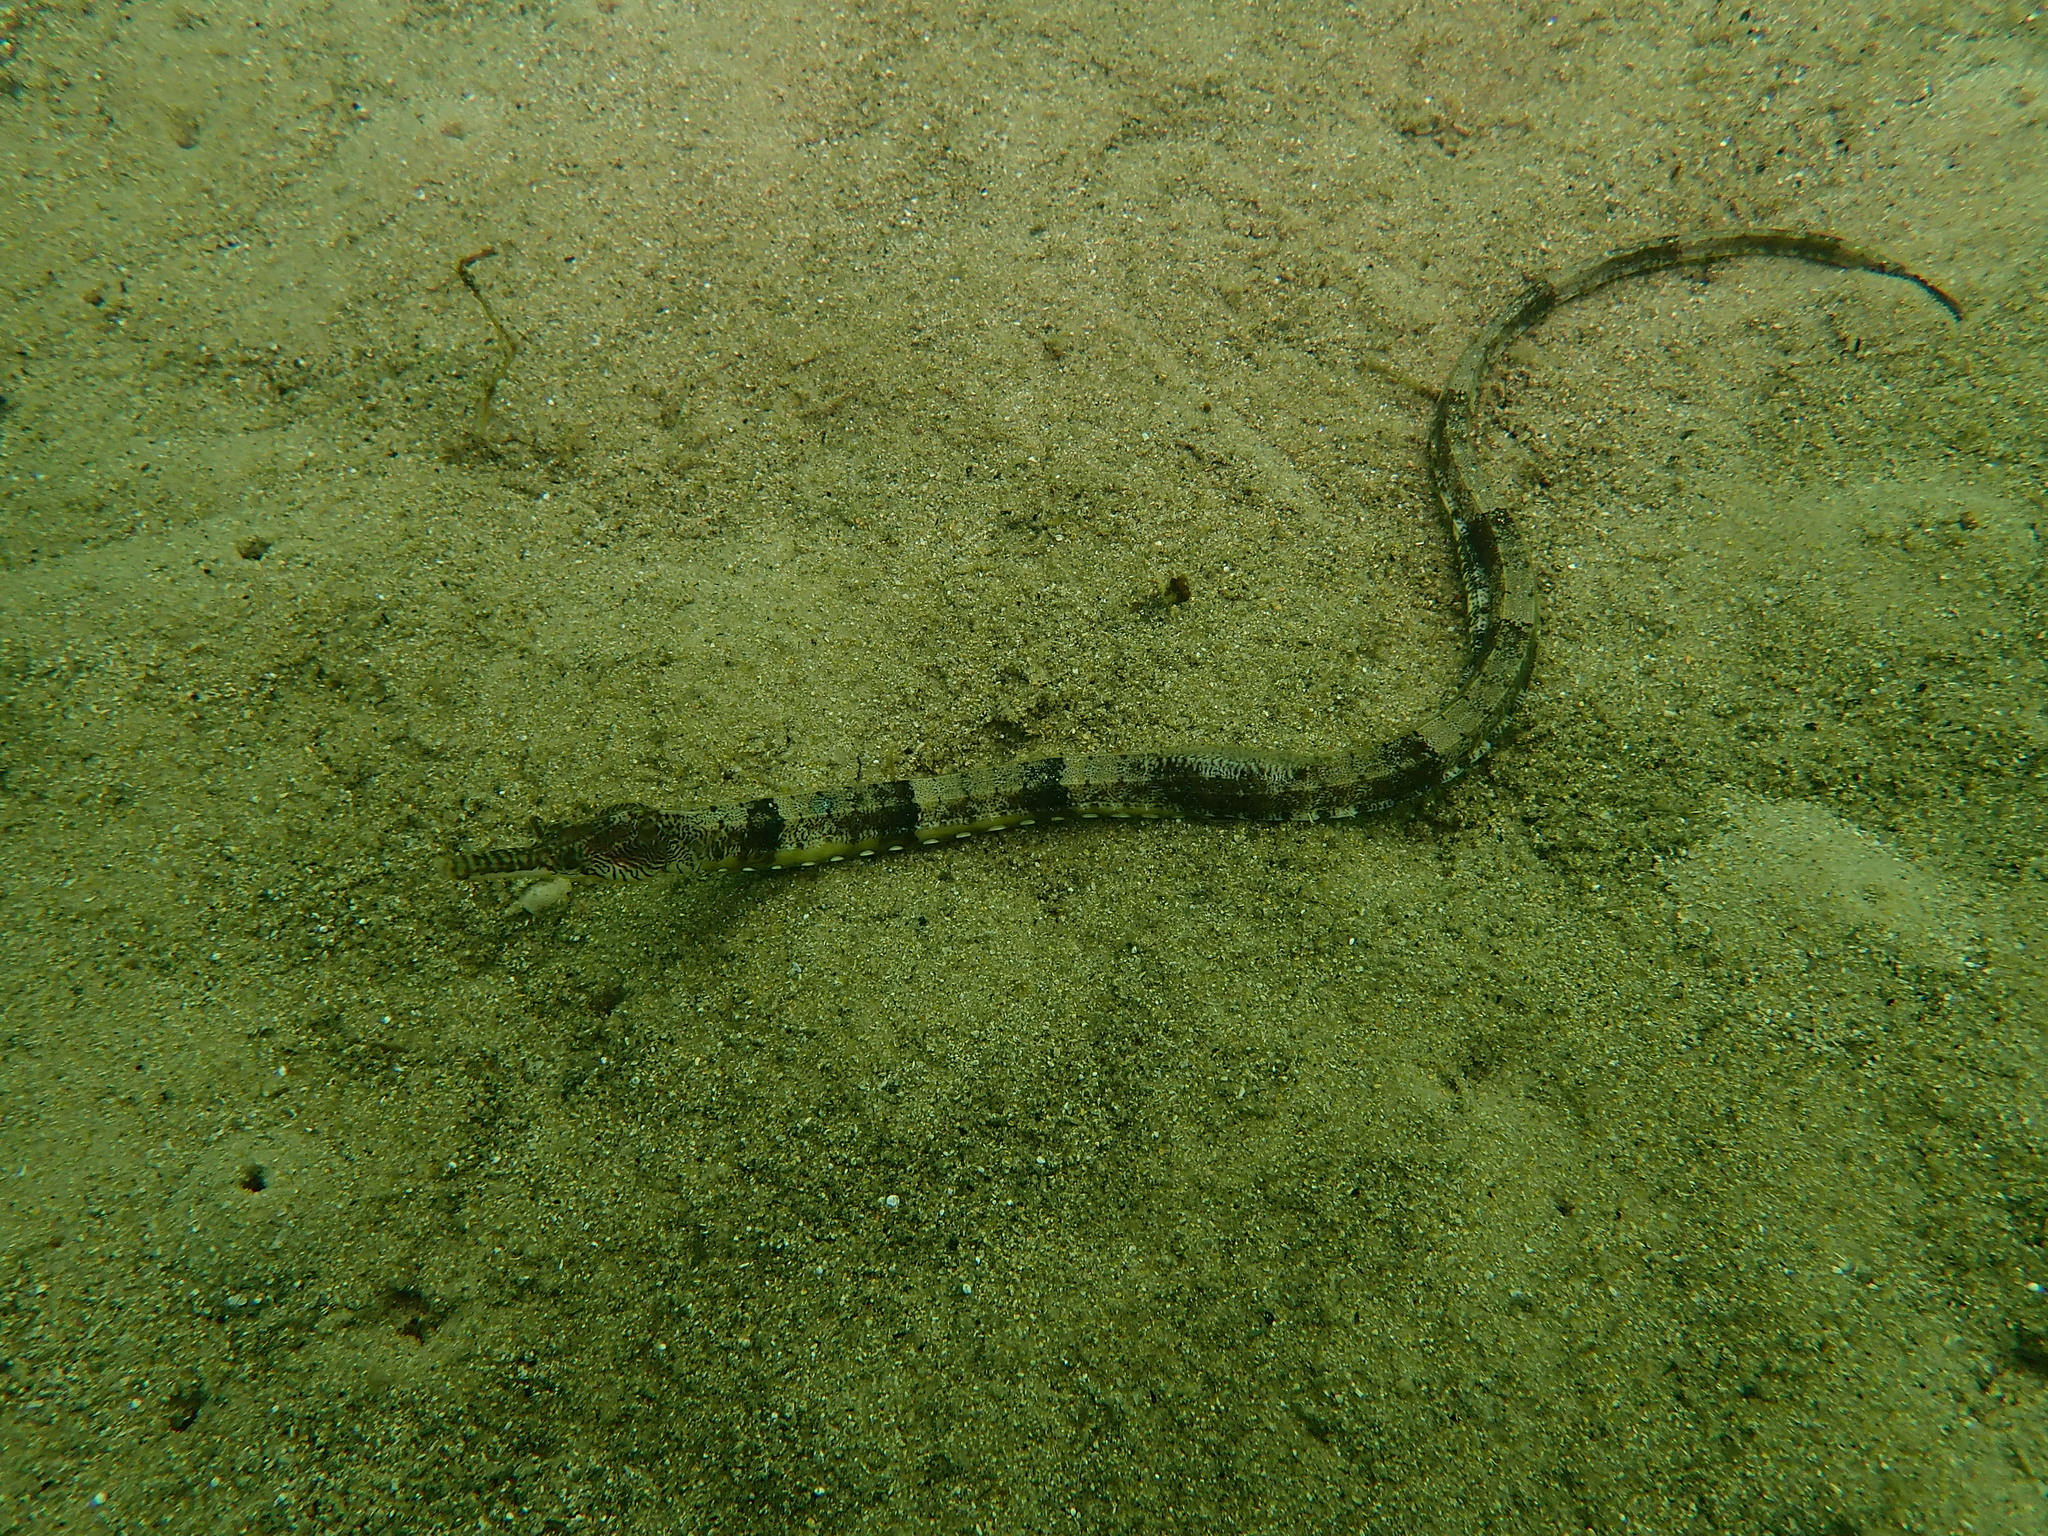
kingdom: Animalia
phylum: Chordata
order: Syngnathiformes
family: Syngnathidae
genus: Filicampus
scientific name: Filicampus tigris
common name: Tentacled pipefish
